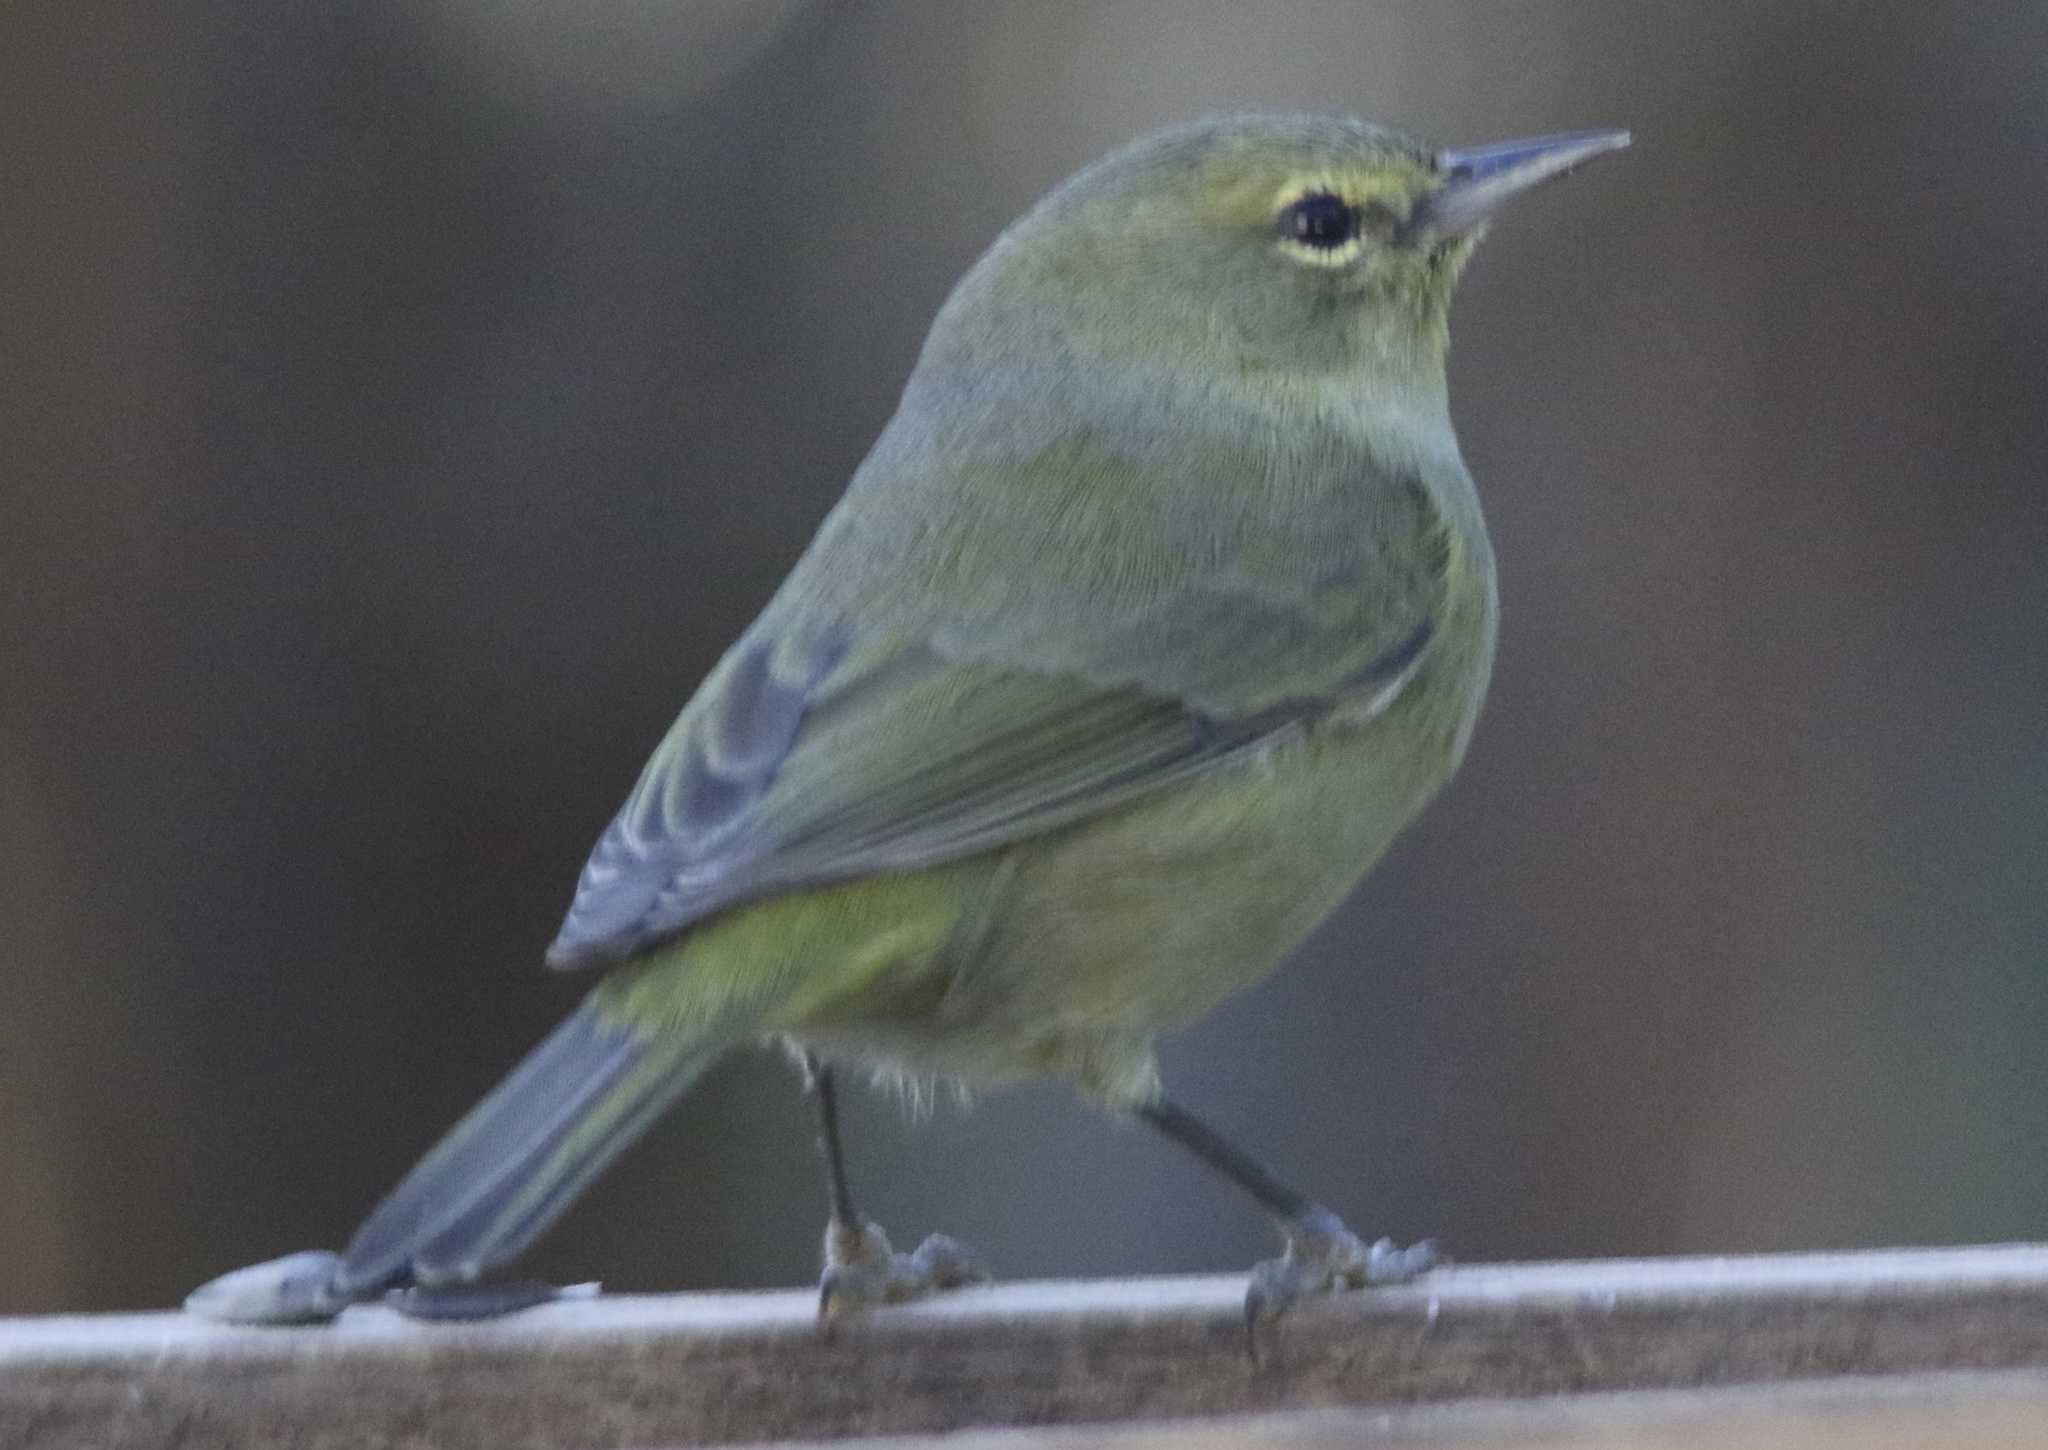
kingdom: Animalia
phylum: Chordata
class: Aves
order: Passeriformes
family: Parulidae
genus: Leiothlypis
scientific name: Leiothlypis celata
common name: Orange-crowned warbler
